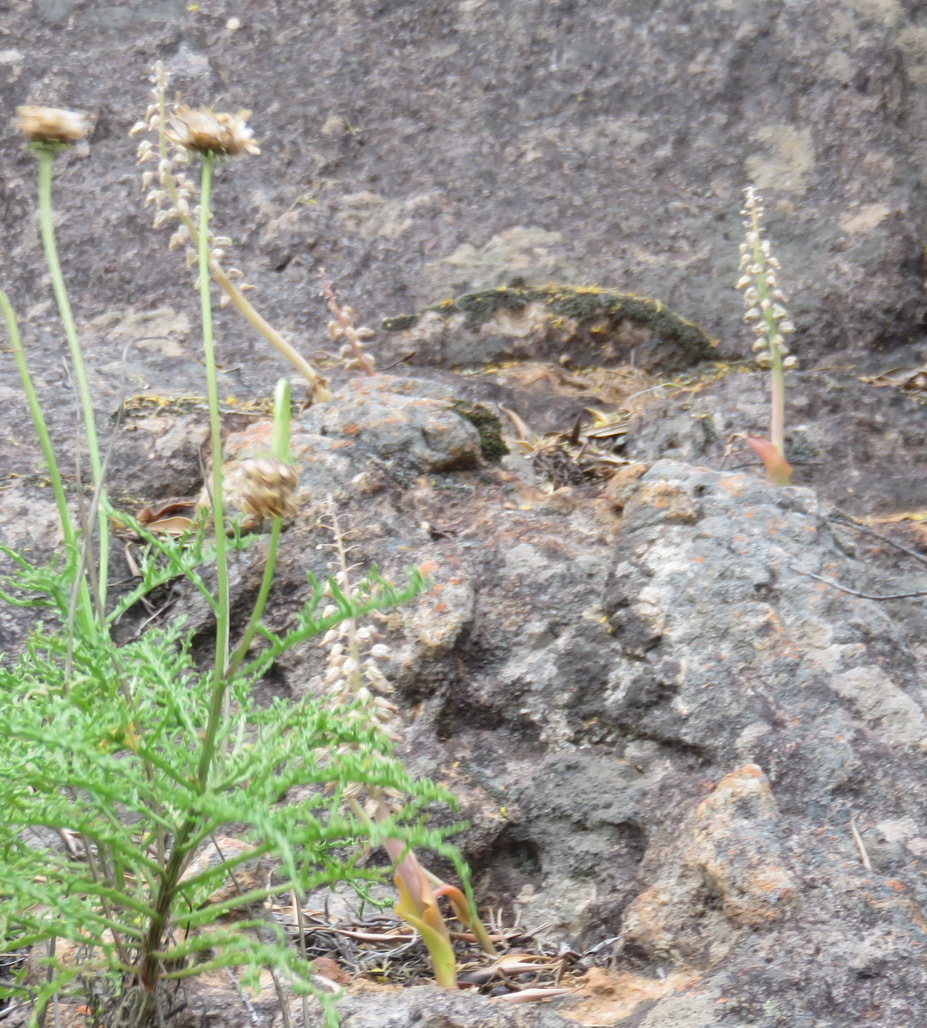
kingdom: Plantae
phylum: Tracheophyta
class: Liliopsida
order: Asparagales
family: Asparagaceae
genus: Lachenalia
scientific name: Lachenalia violacea
